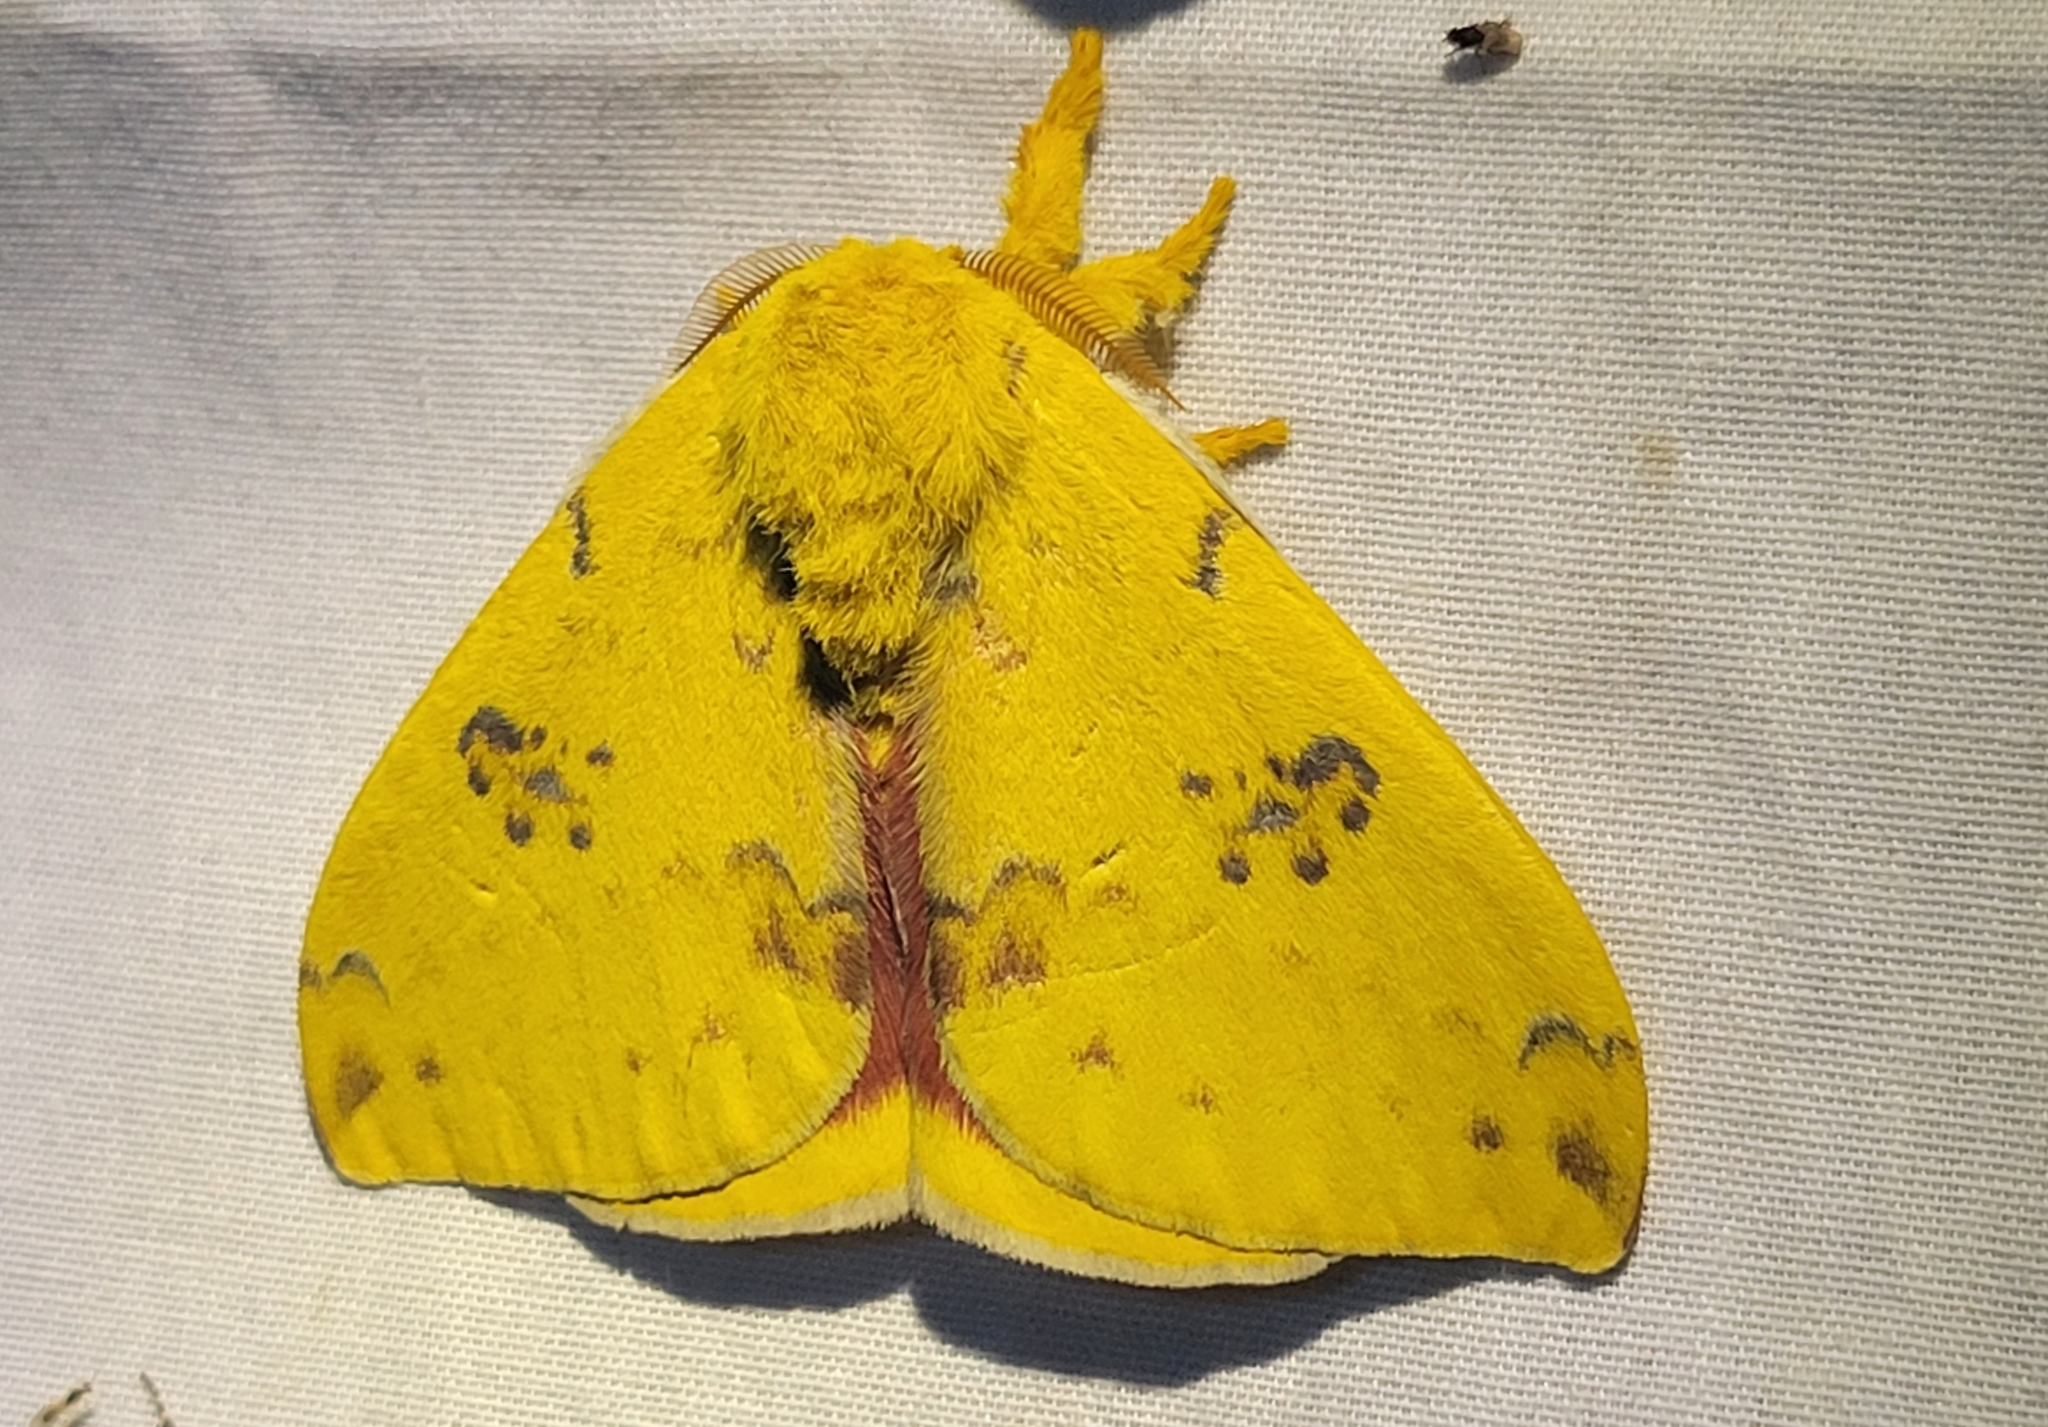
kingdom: Animalia
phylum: Arthropoda
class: Insecta
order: Lepidoptera
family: Saturniidae
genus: Automeris
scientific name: Automeris io
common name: Io moth
